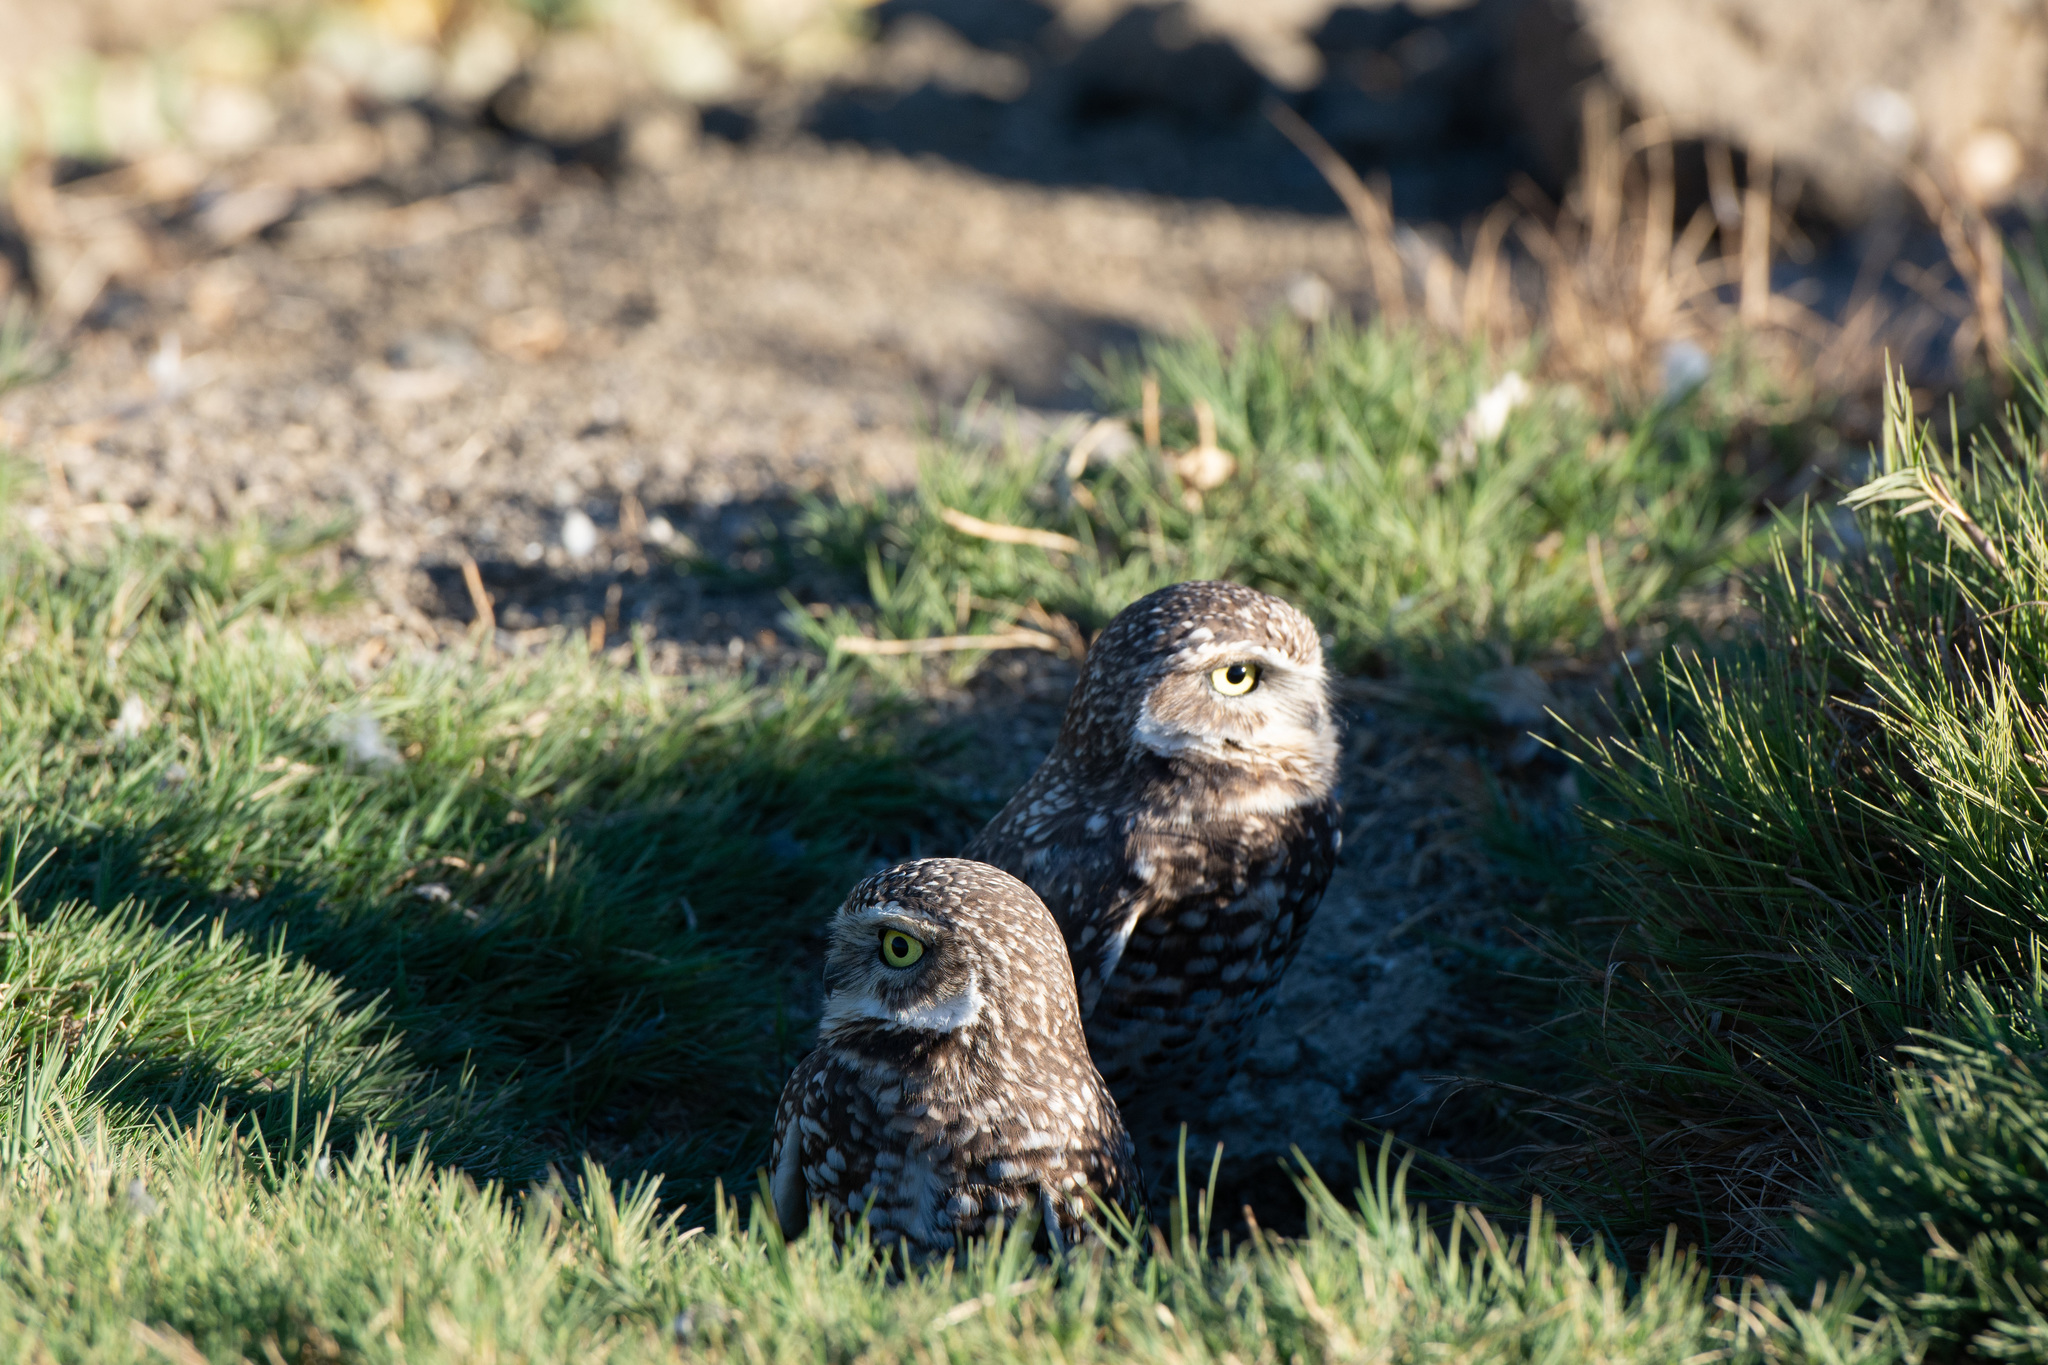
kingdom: Animalia
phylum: Chordata
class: Aves
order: Strigiformes
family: Strigidae
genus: Athene
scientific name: Athene cunicularia
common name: Burrowing owl
